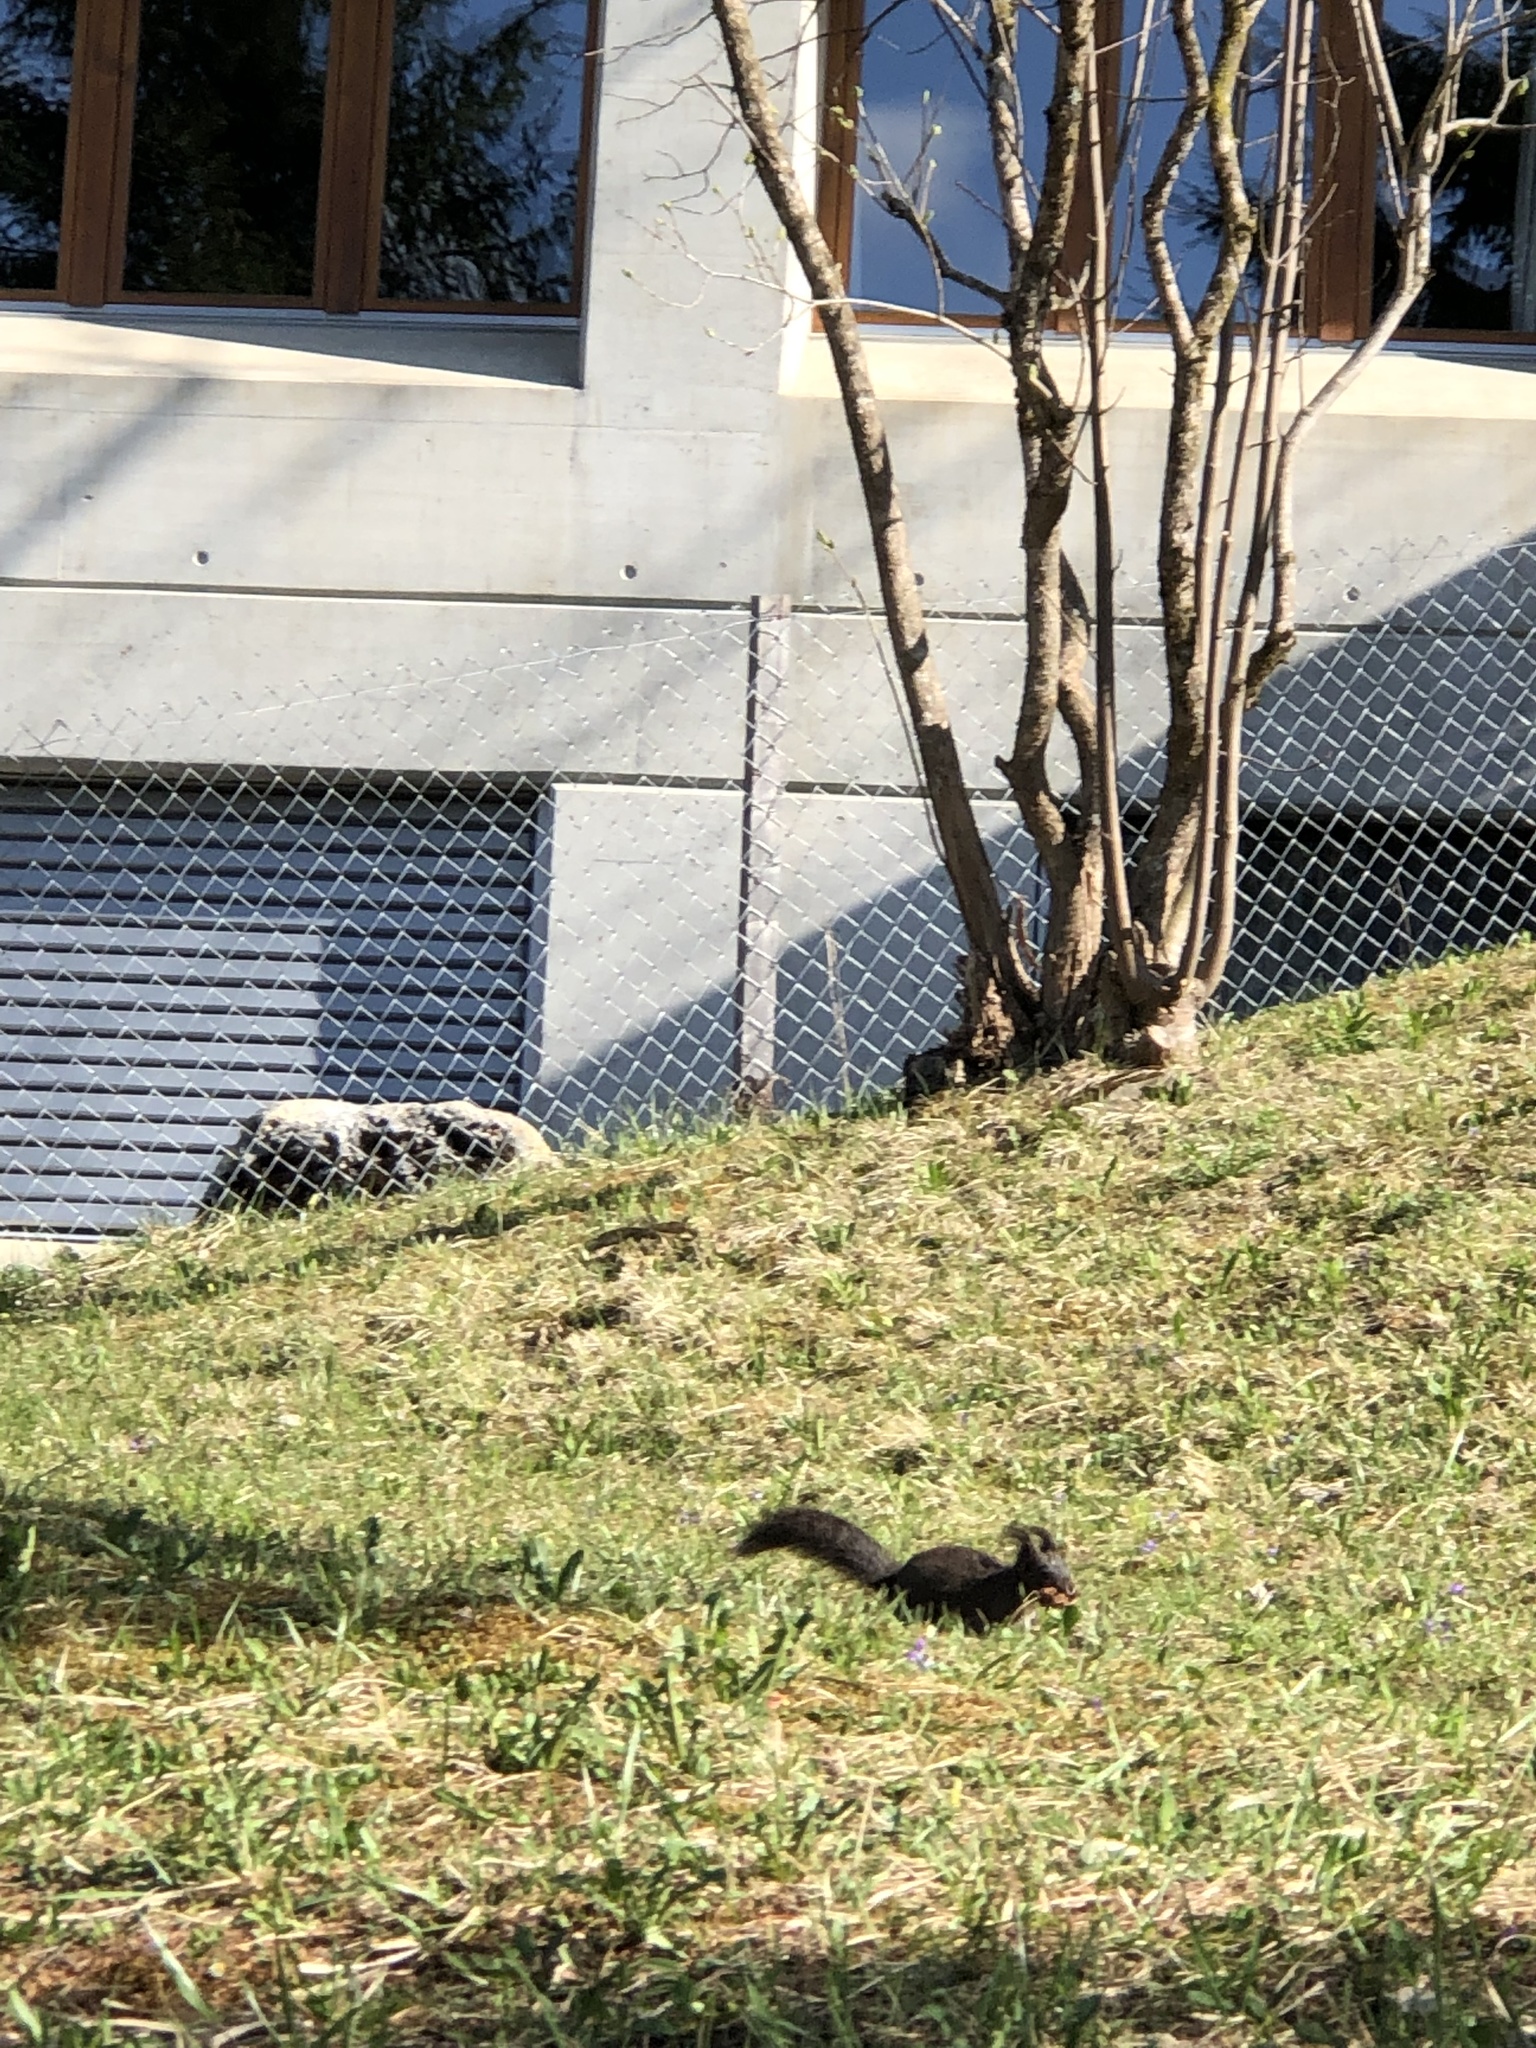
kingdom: Animalia
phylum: Chordata
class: Mammalia
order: Rodentia
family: Sciuridae
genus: Sciurus
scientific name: Sciurus vulgaris
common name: Eurasian red squirrel
